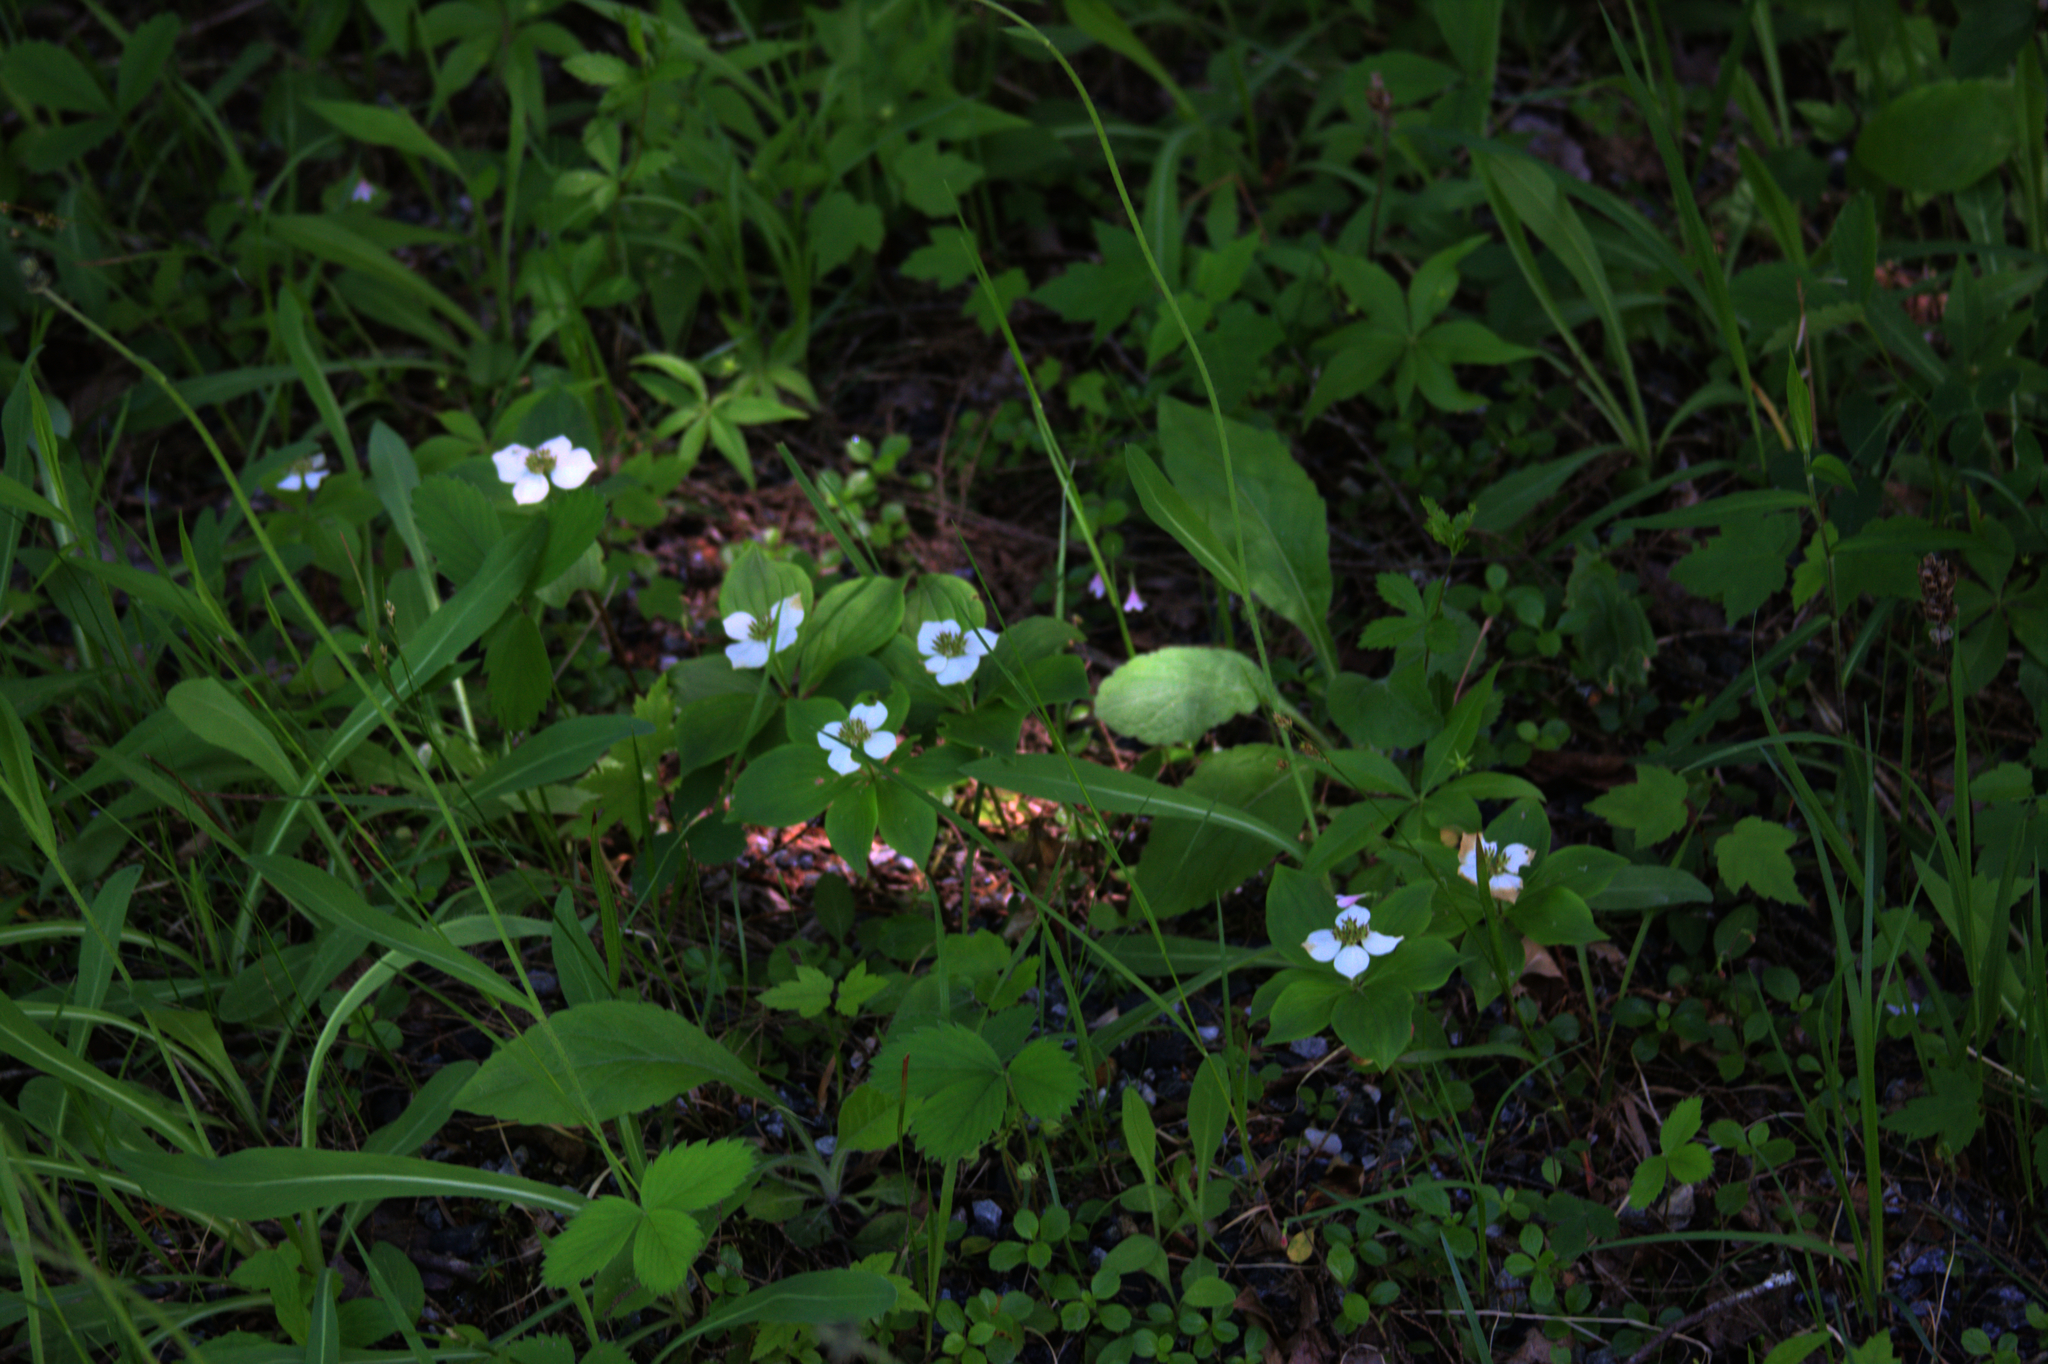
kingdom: Plantae
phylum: Tracheophyta
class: Magnoliopsida
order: Cornales
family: Cornaceae
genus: Cornus
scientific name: Cornus canadensis
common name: Creeping dogwood
